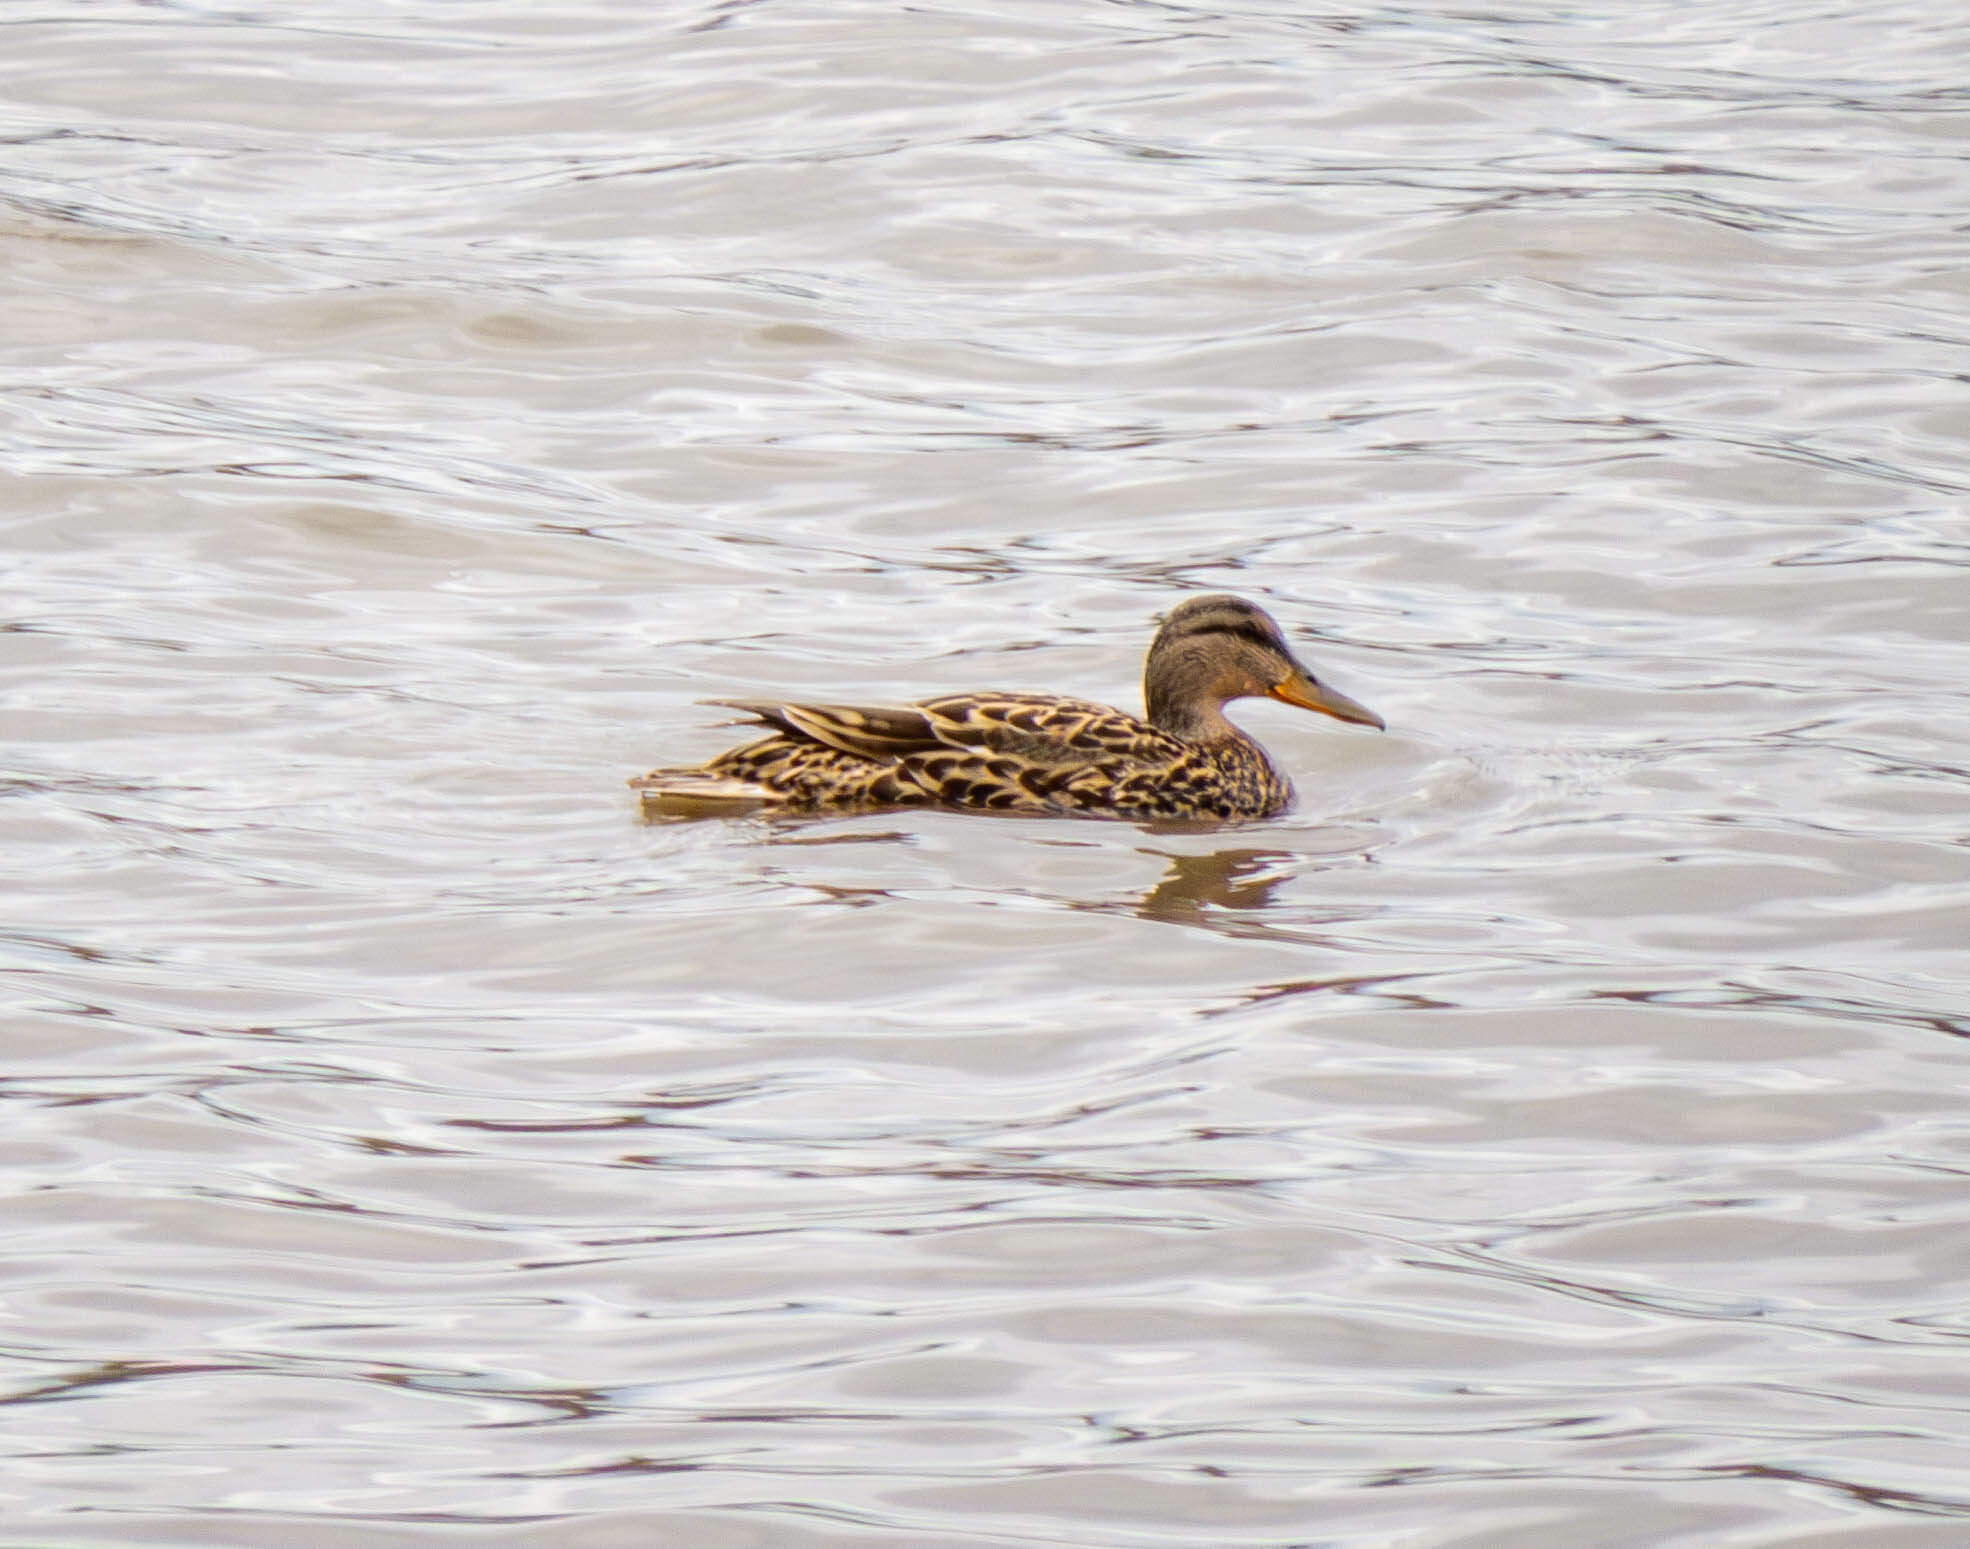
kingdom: Animalia
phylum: Chordata
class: Aves
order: Anseriformes
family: Anatidae
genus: Anas
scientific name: Anas platyrhynchos
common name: Mallard
